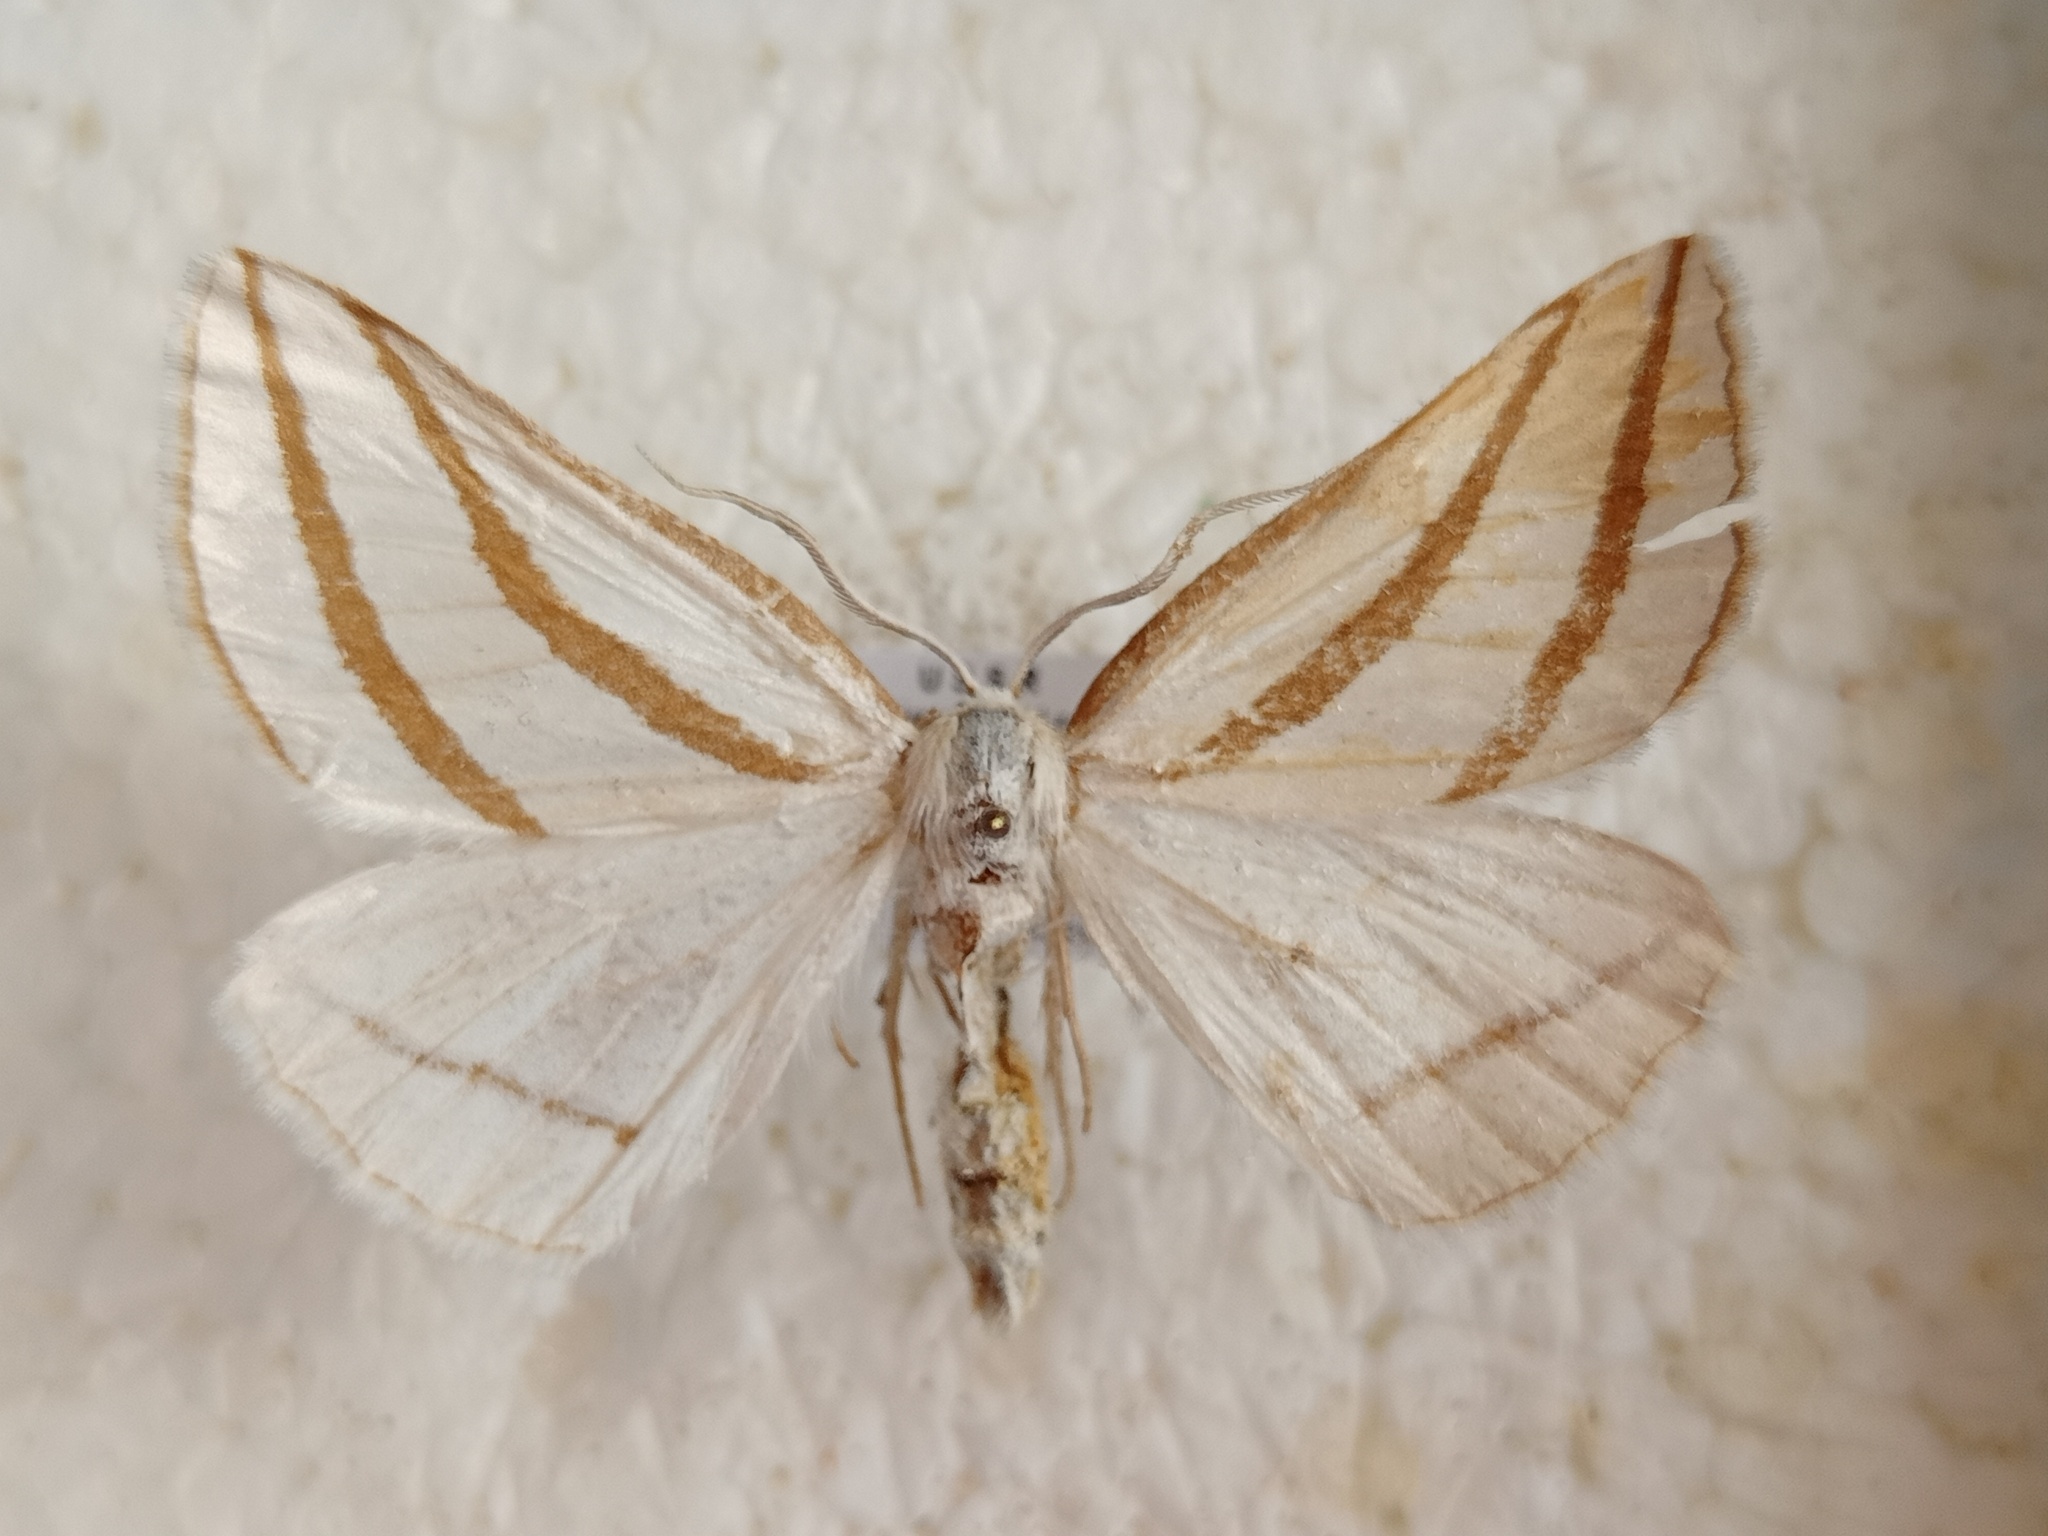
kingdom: Animalia
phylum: Arthropoda
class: Insecta
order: Lepidoptera
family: Geometridae
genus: Megaspilates
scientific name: Megaspilates mundataria
